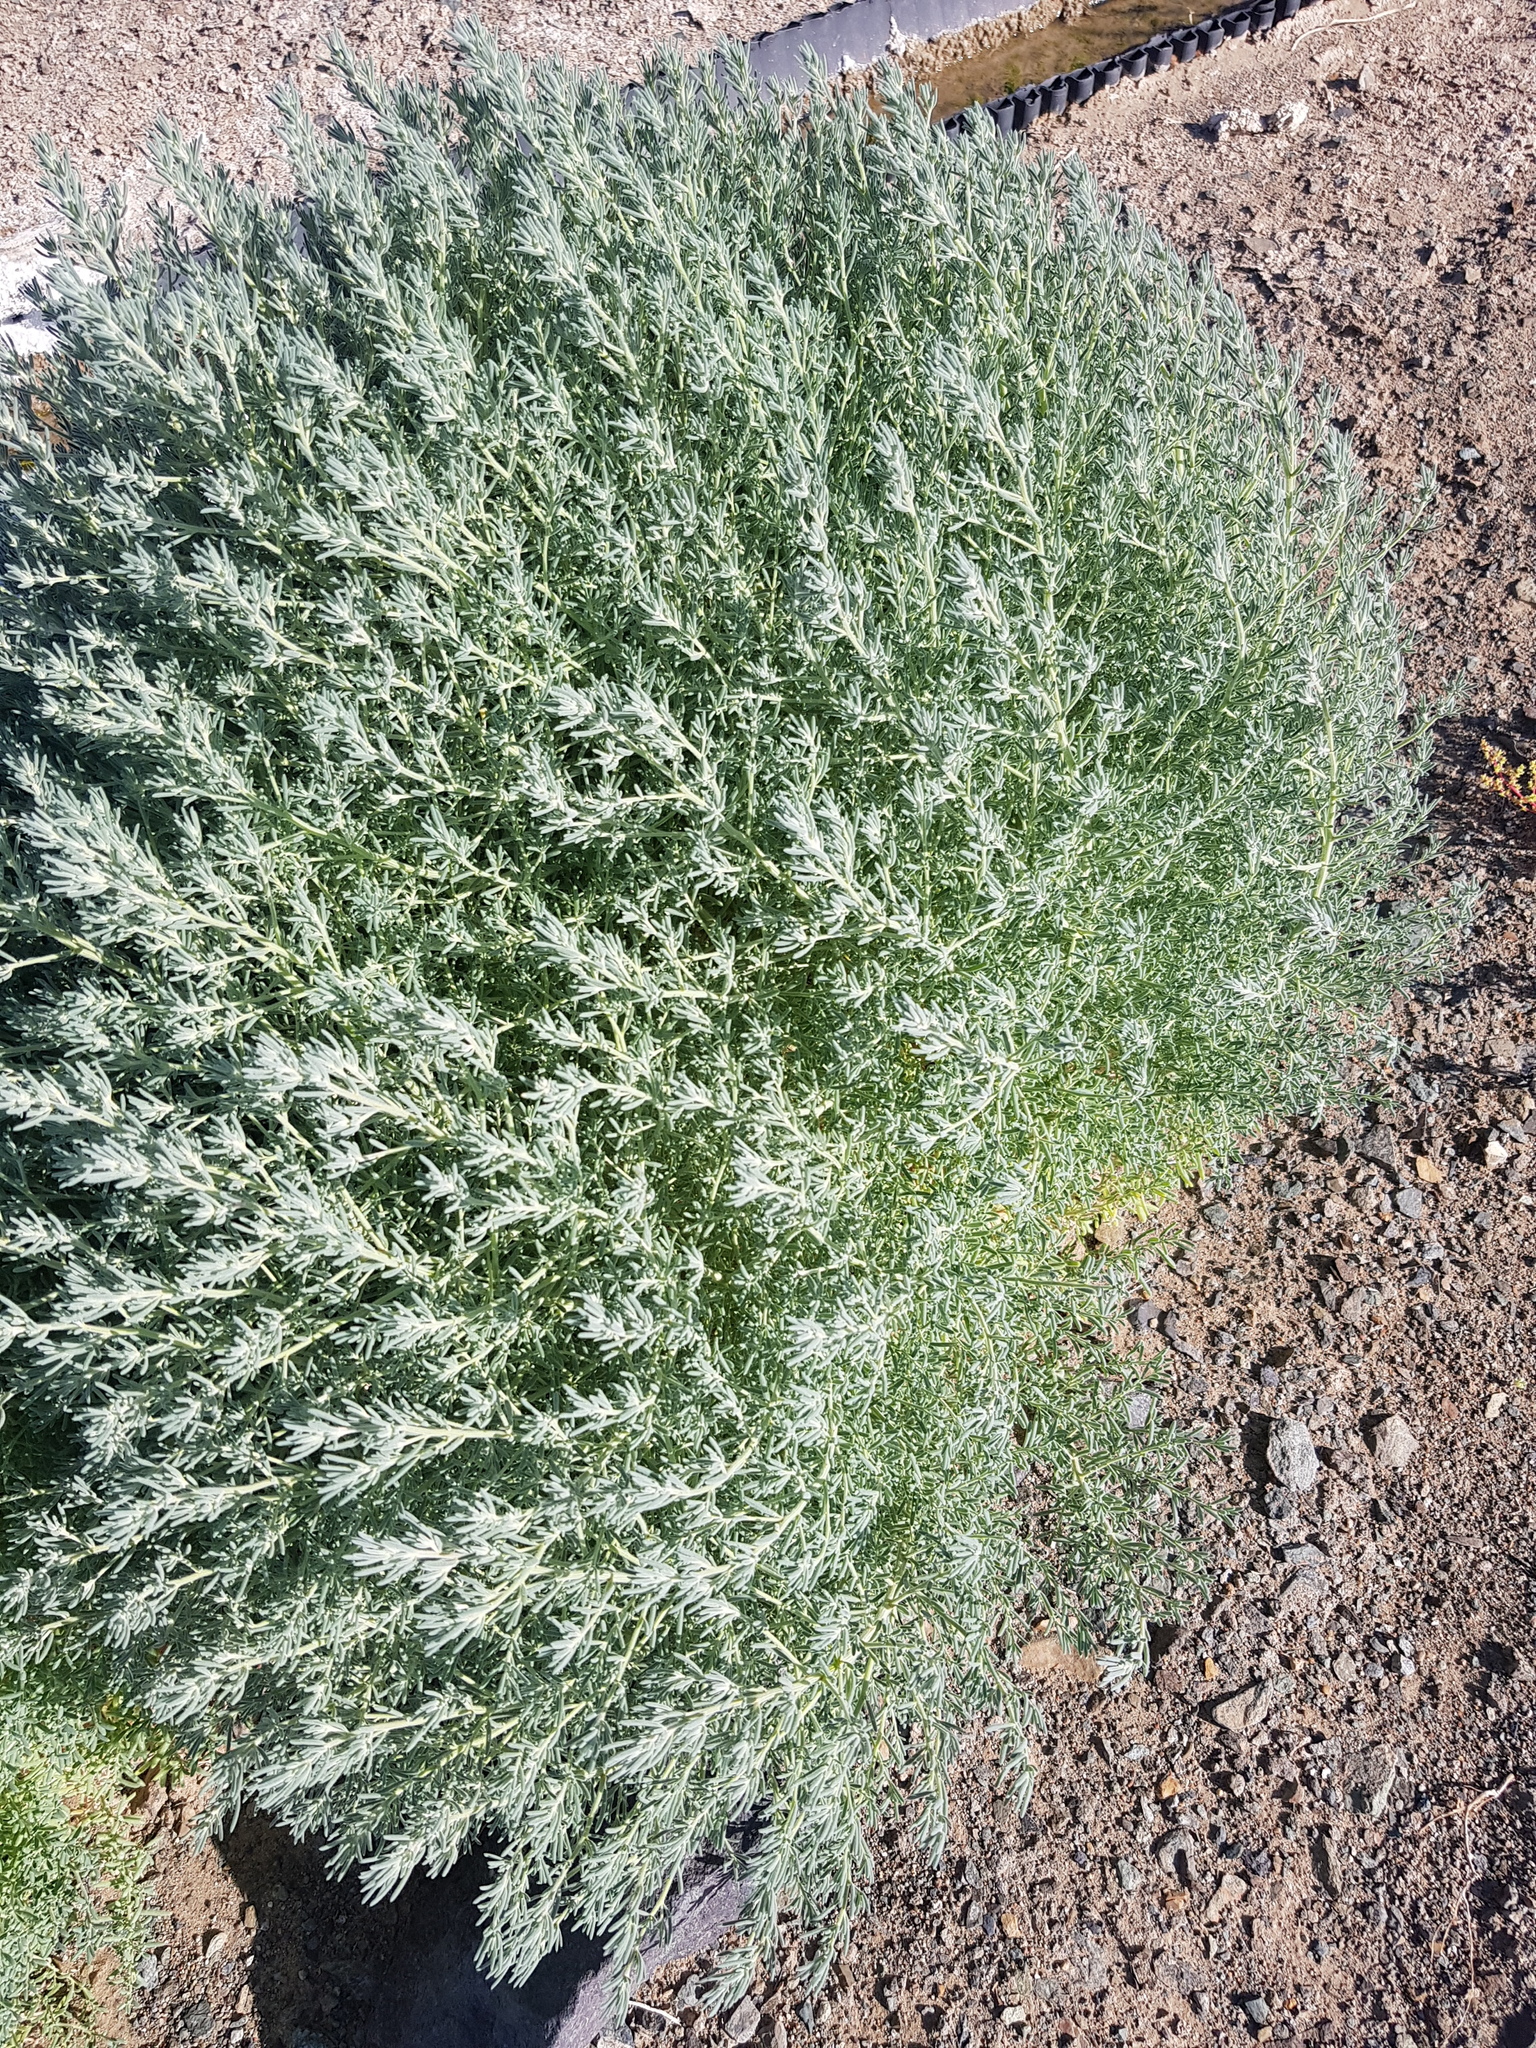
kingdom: Plantae
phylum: Tracheophyta
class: Magnoliopsida
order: Caryophyllales
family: Amaranthaceae
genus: Halogeton
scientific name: Halogeton glomeratus
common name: Saltlover
